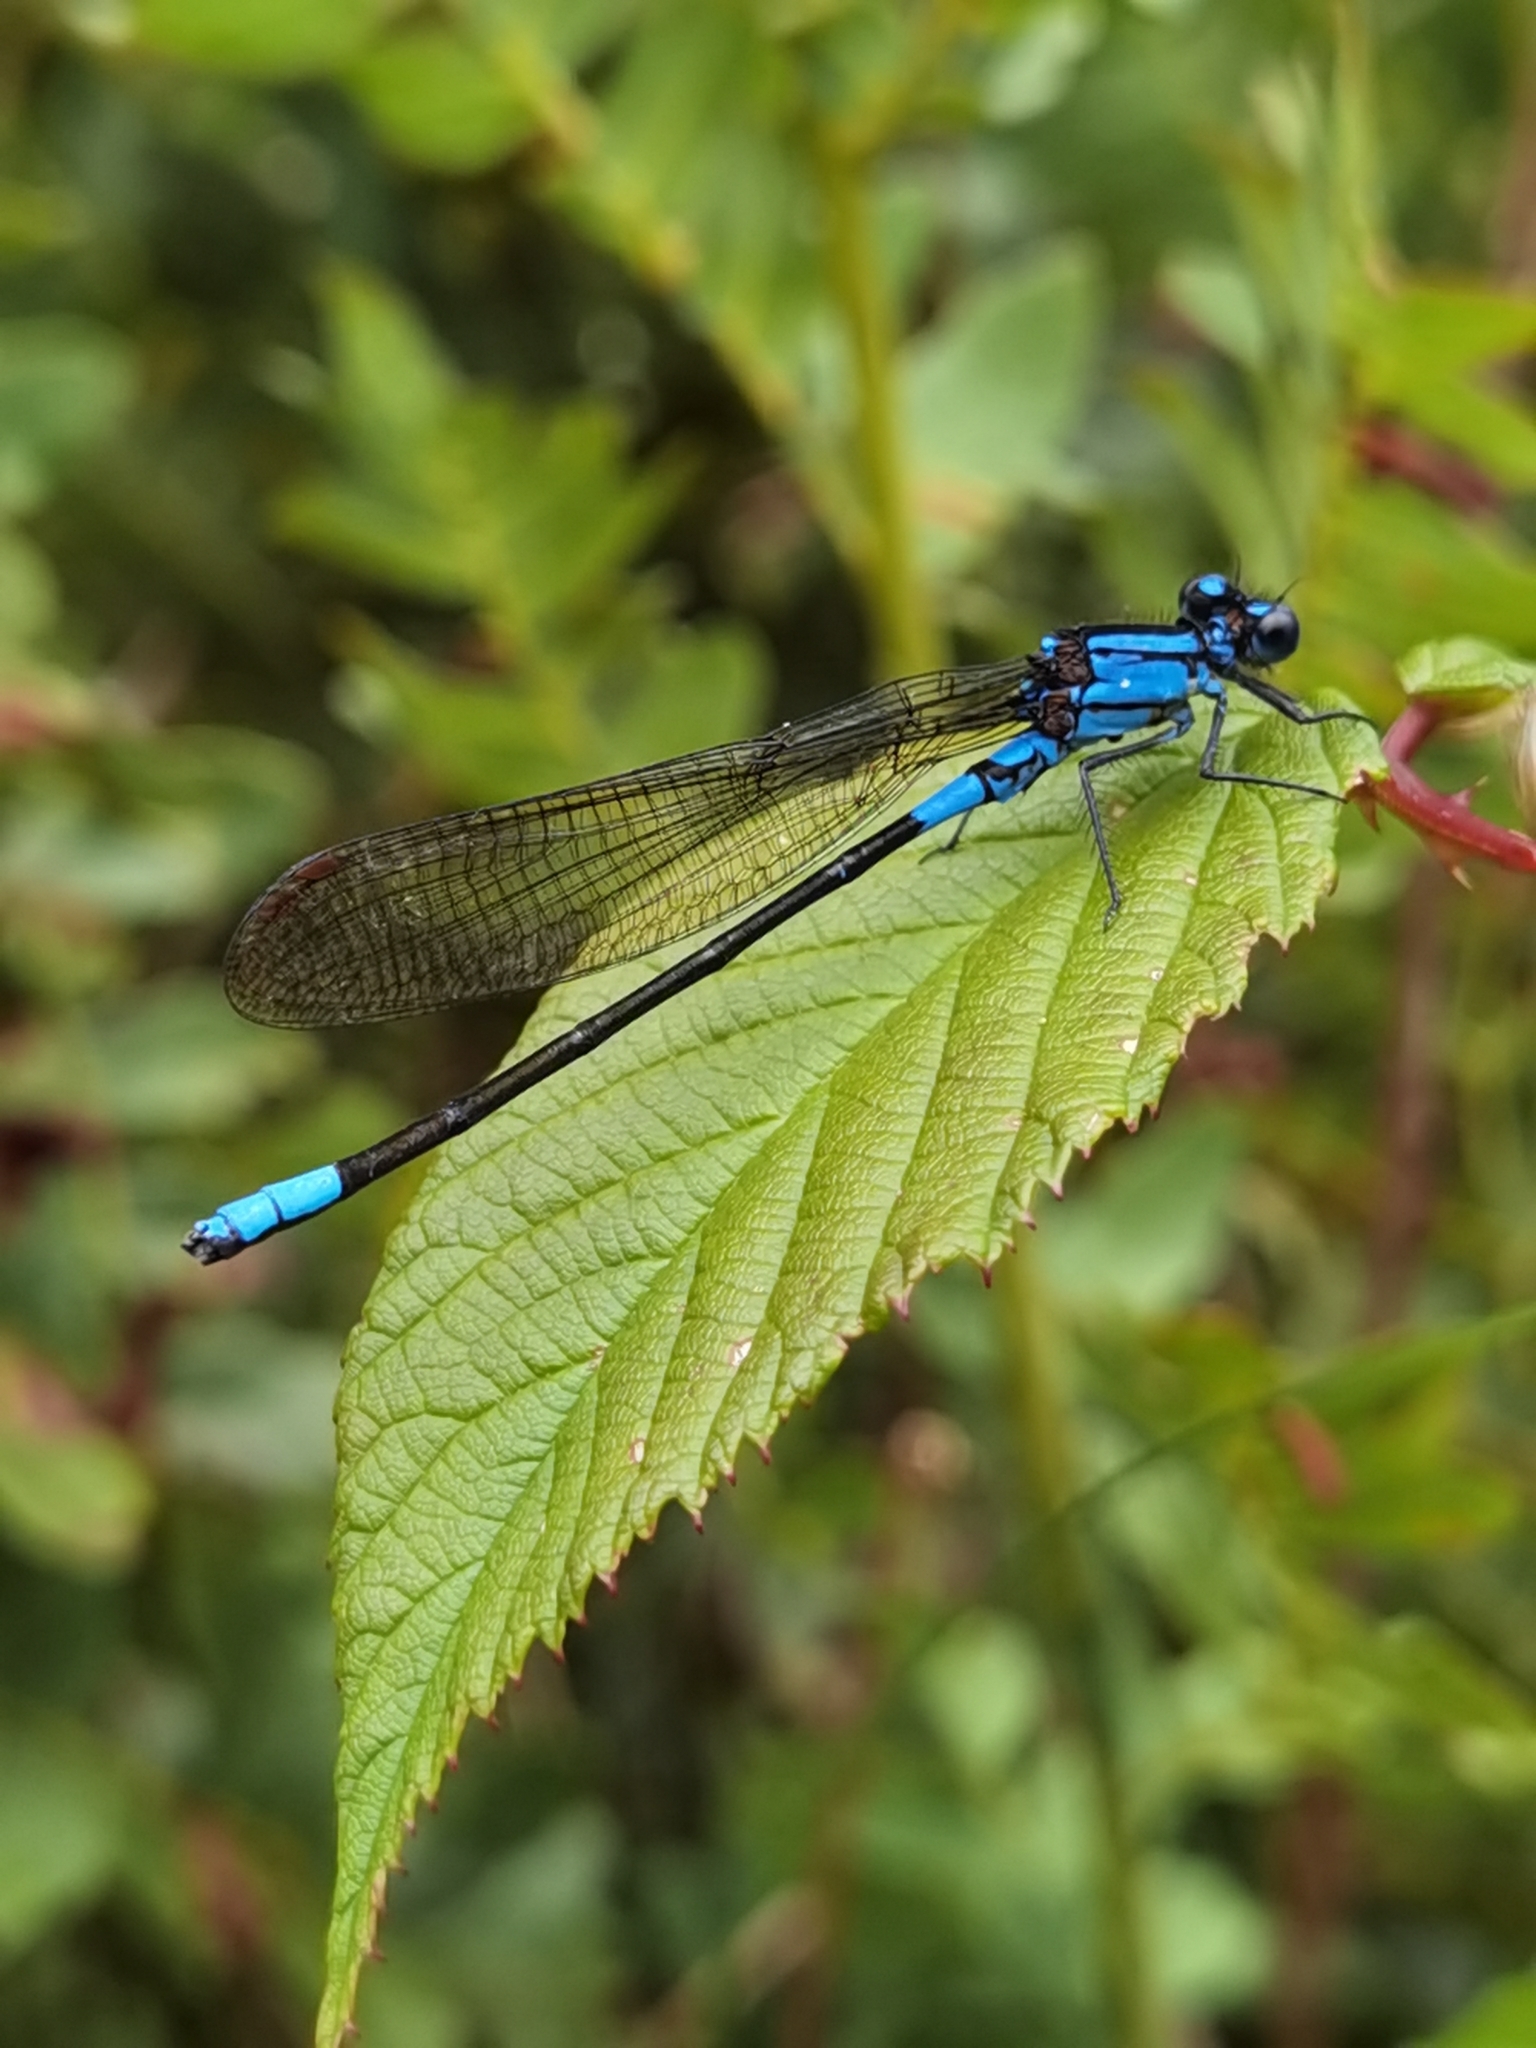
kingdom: Animalia
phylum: Arthropoda
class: Insecta
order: Odonata
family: Coenagrionidae
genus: Argia
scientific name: Argia terira
